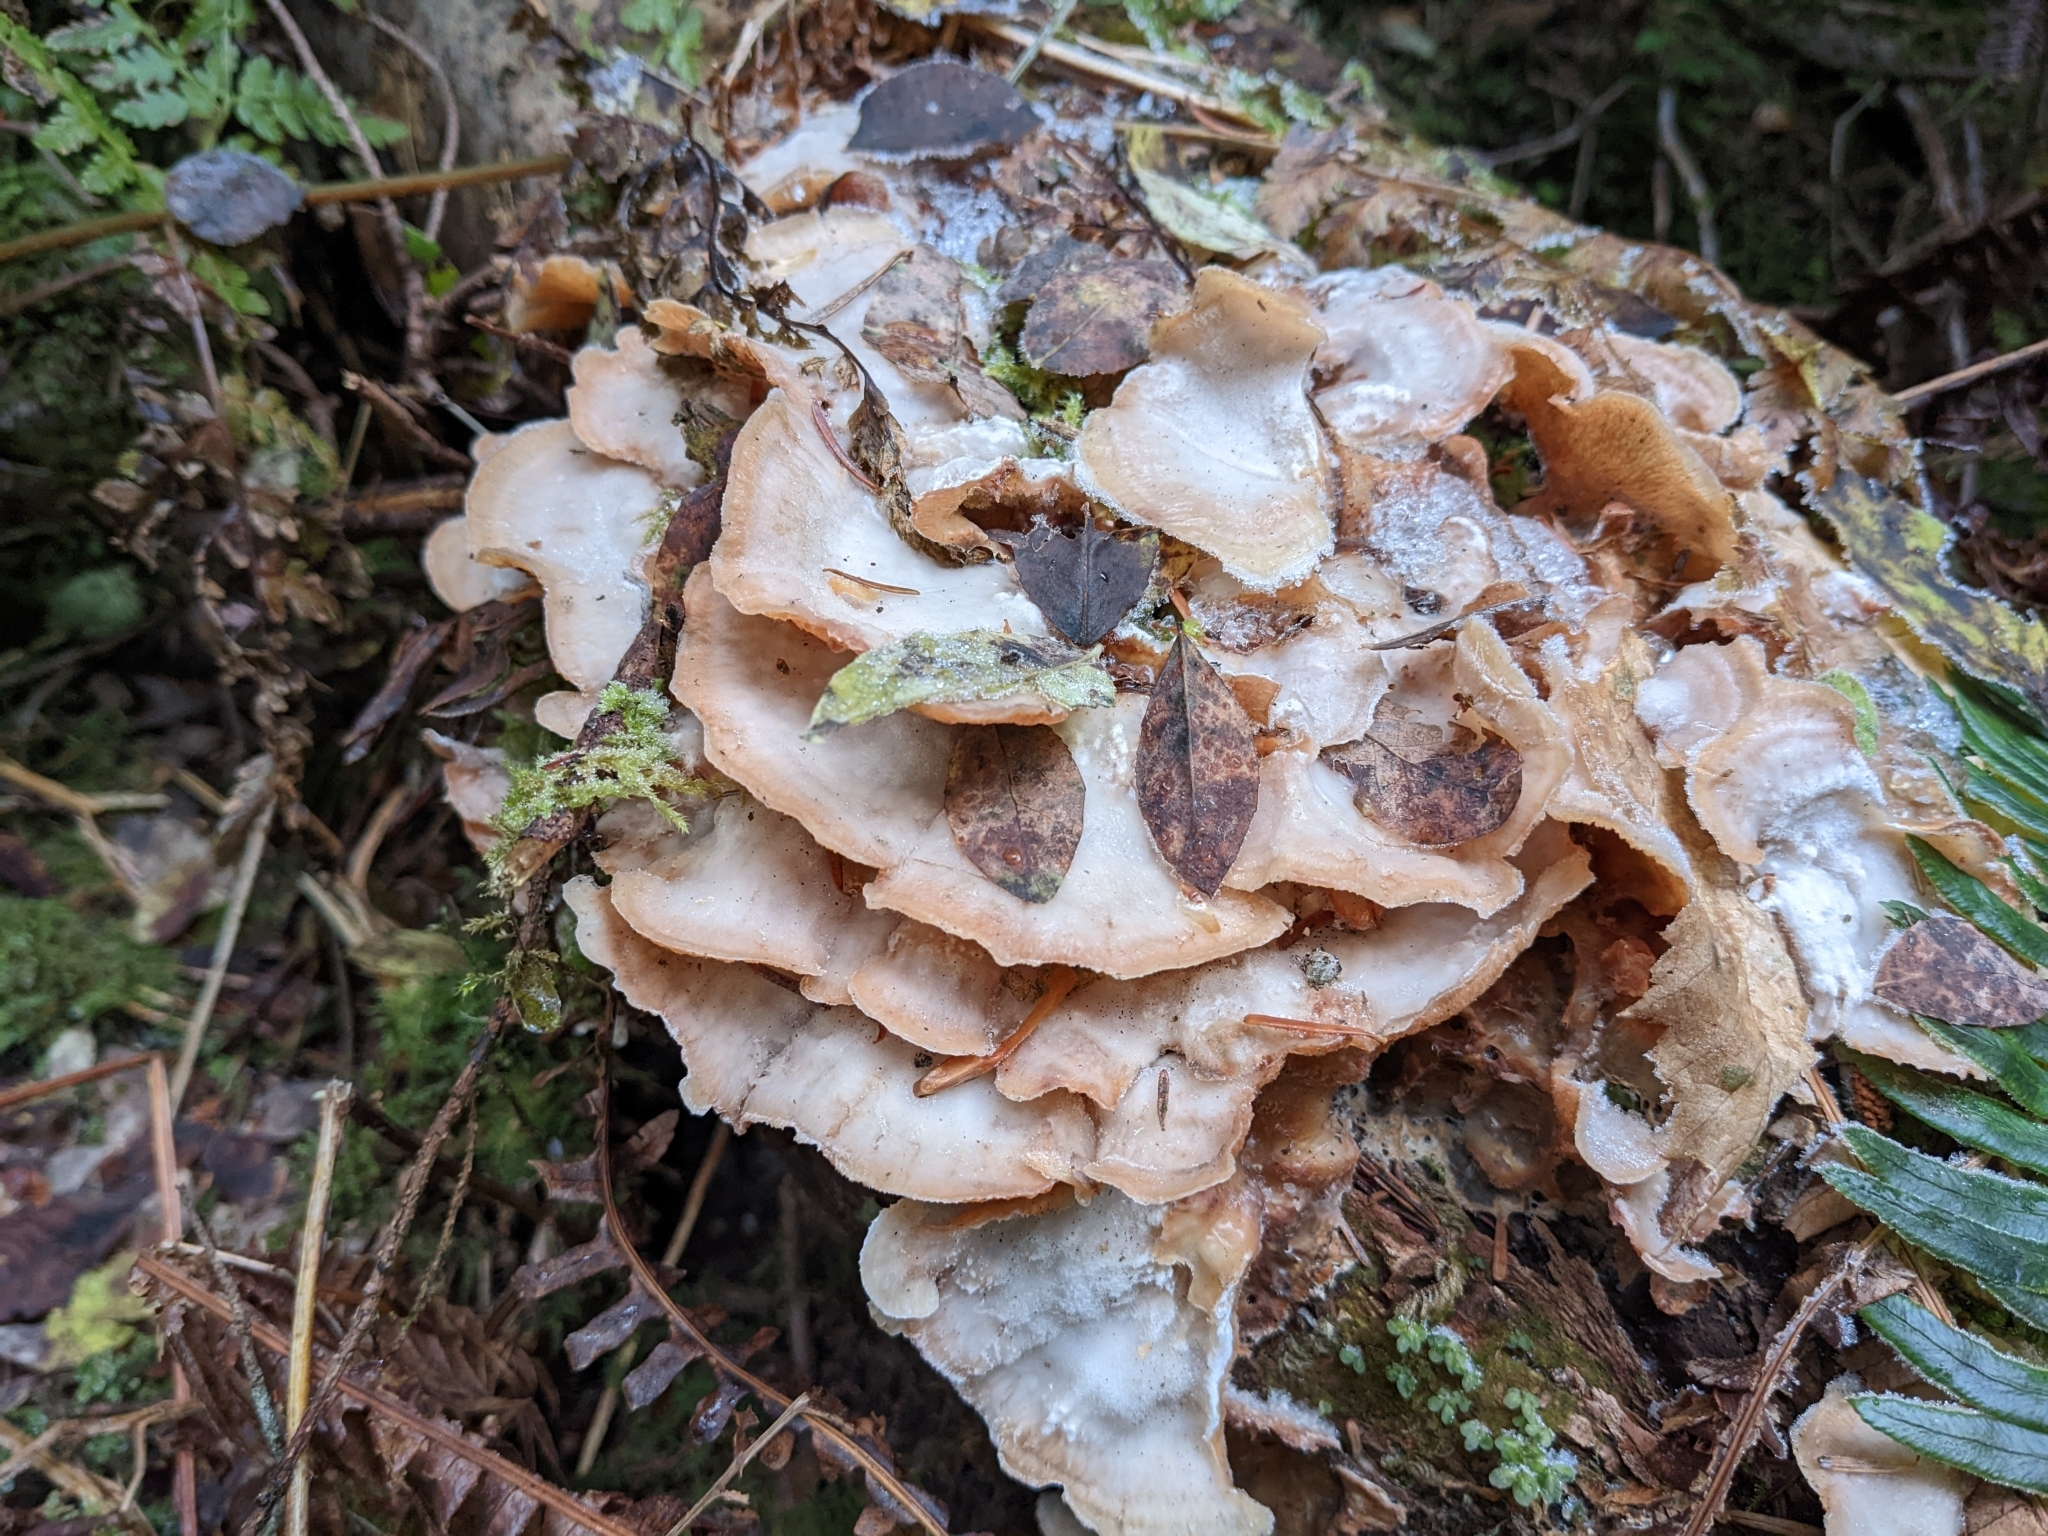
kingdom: Fungi
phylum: Basidiomycota
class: Agaricomycetes
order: Polyporales
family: Meruliaceae
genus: Phlebia
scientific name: Phlebia tremellosa
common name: Jelly rot
